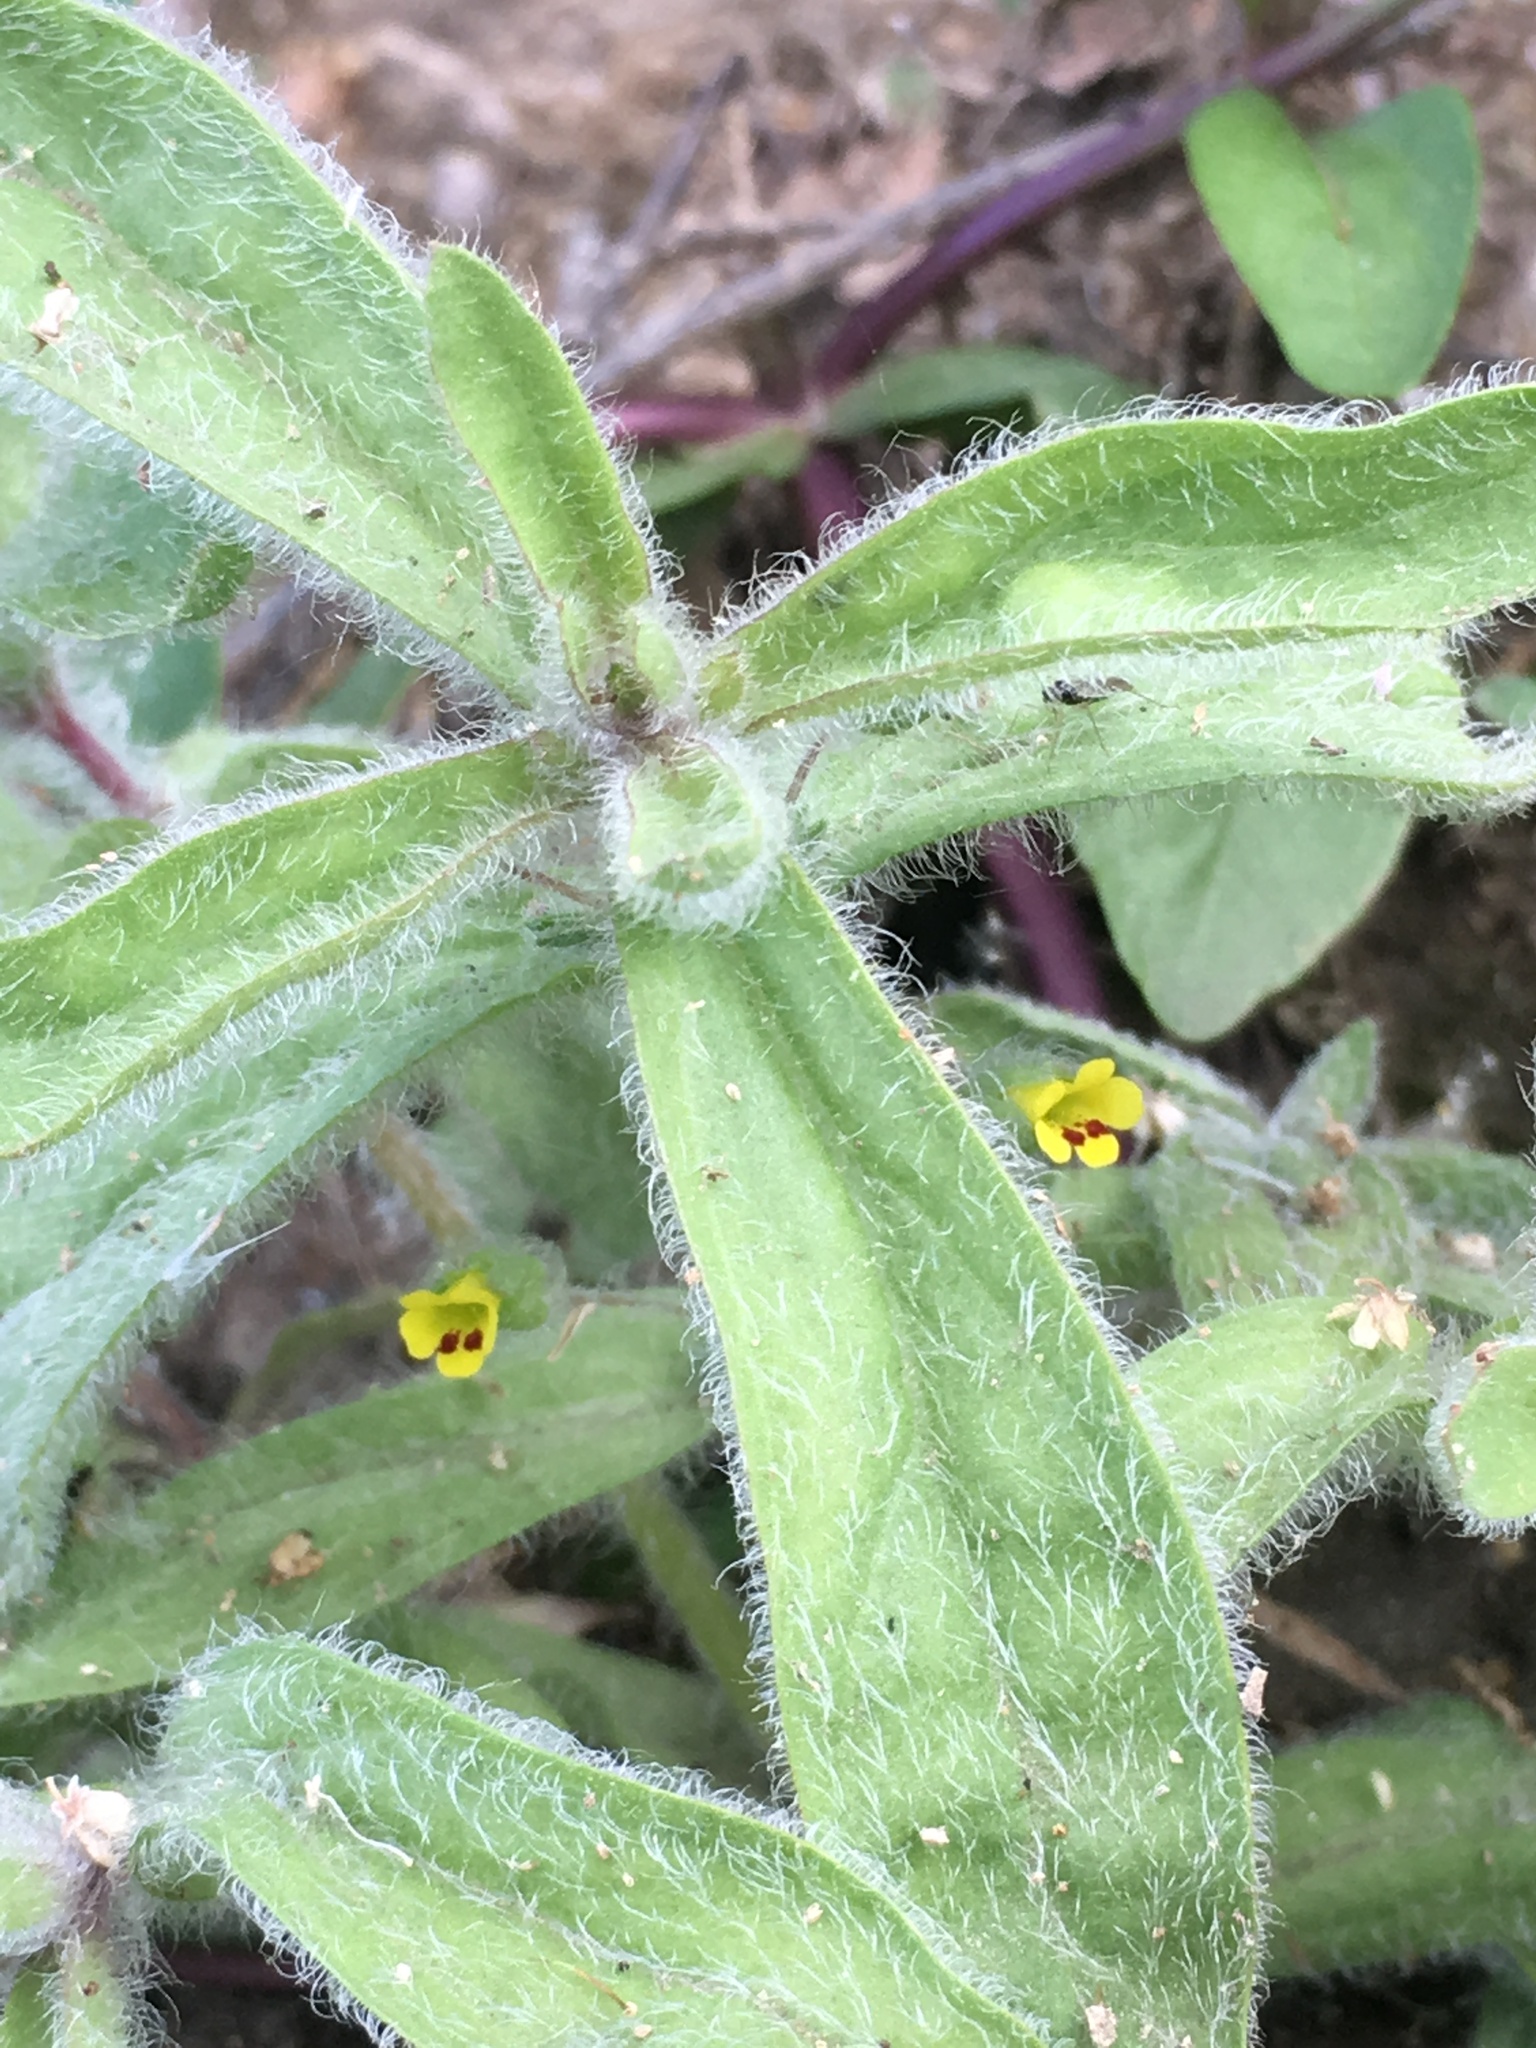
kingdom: Plantae
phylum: Tracheophyta
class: Magnoliopsida
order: Lamiales
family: Phrymaceae
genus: Mimetanthe
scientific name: Mimetanthe pilosa
